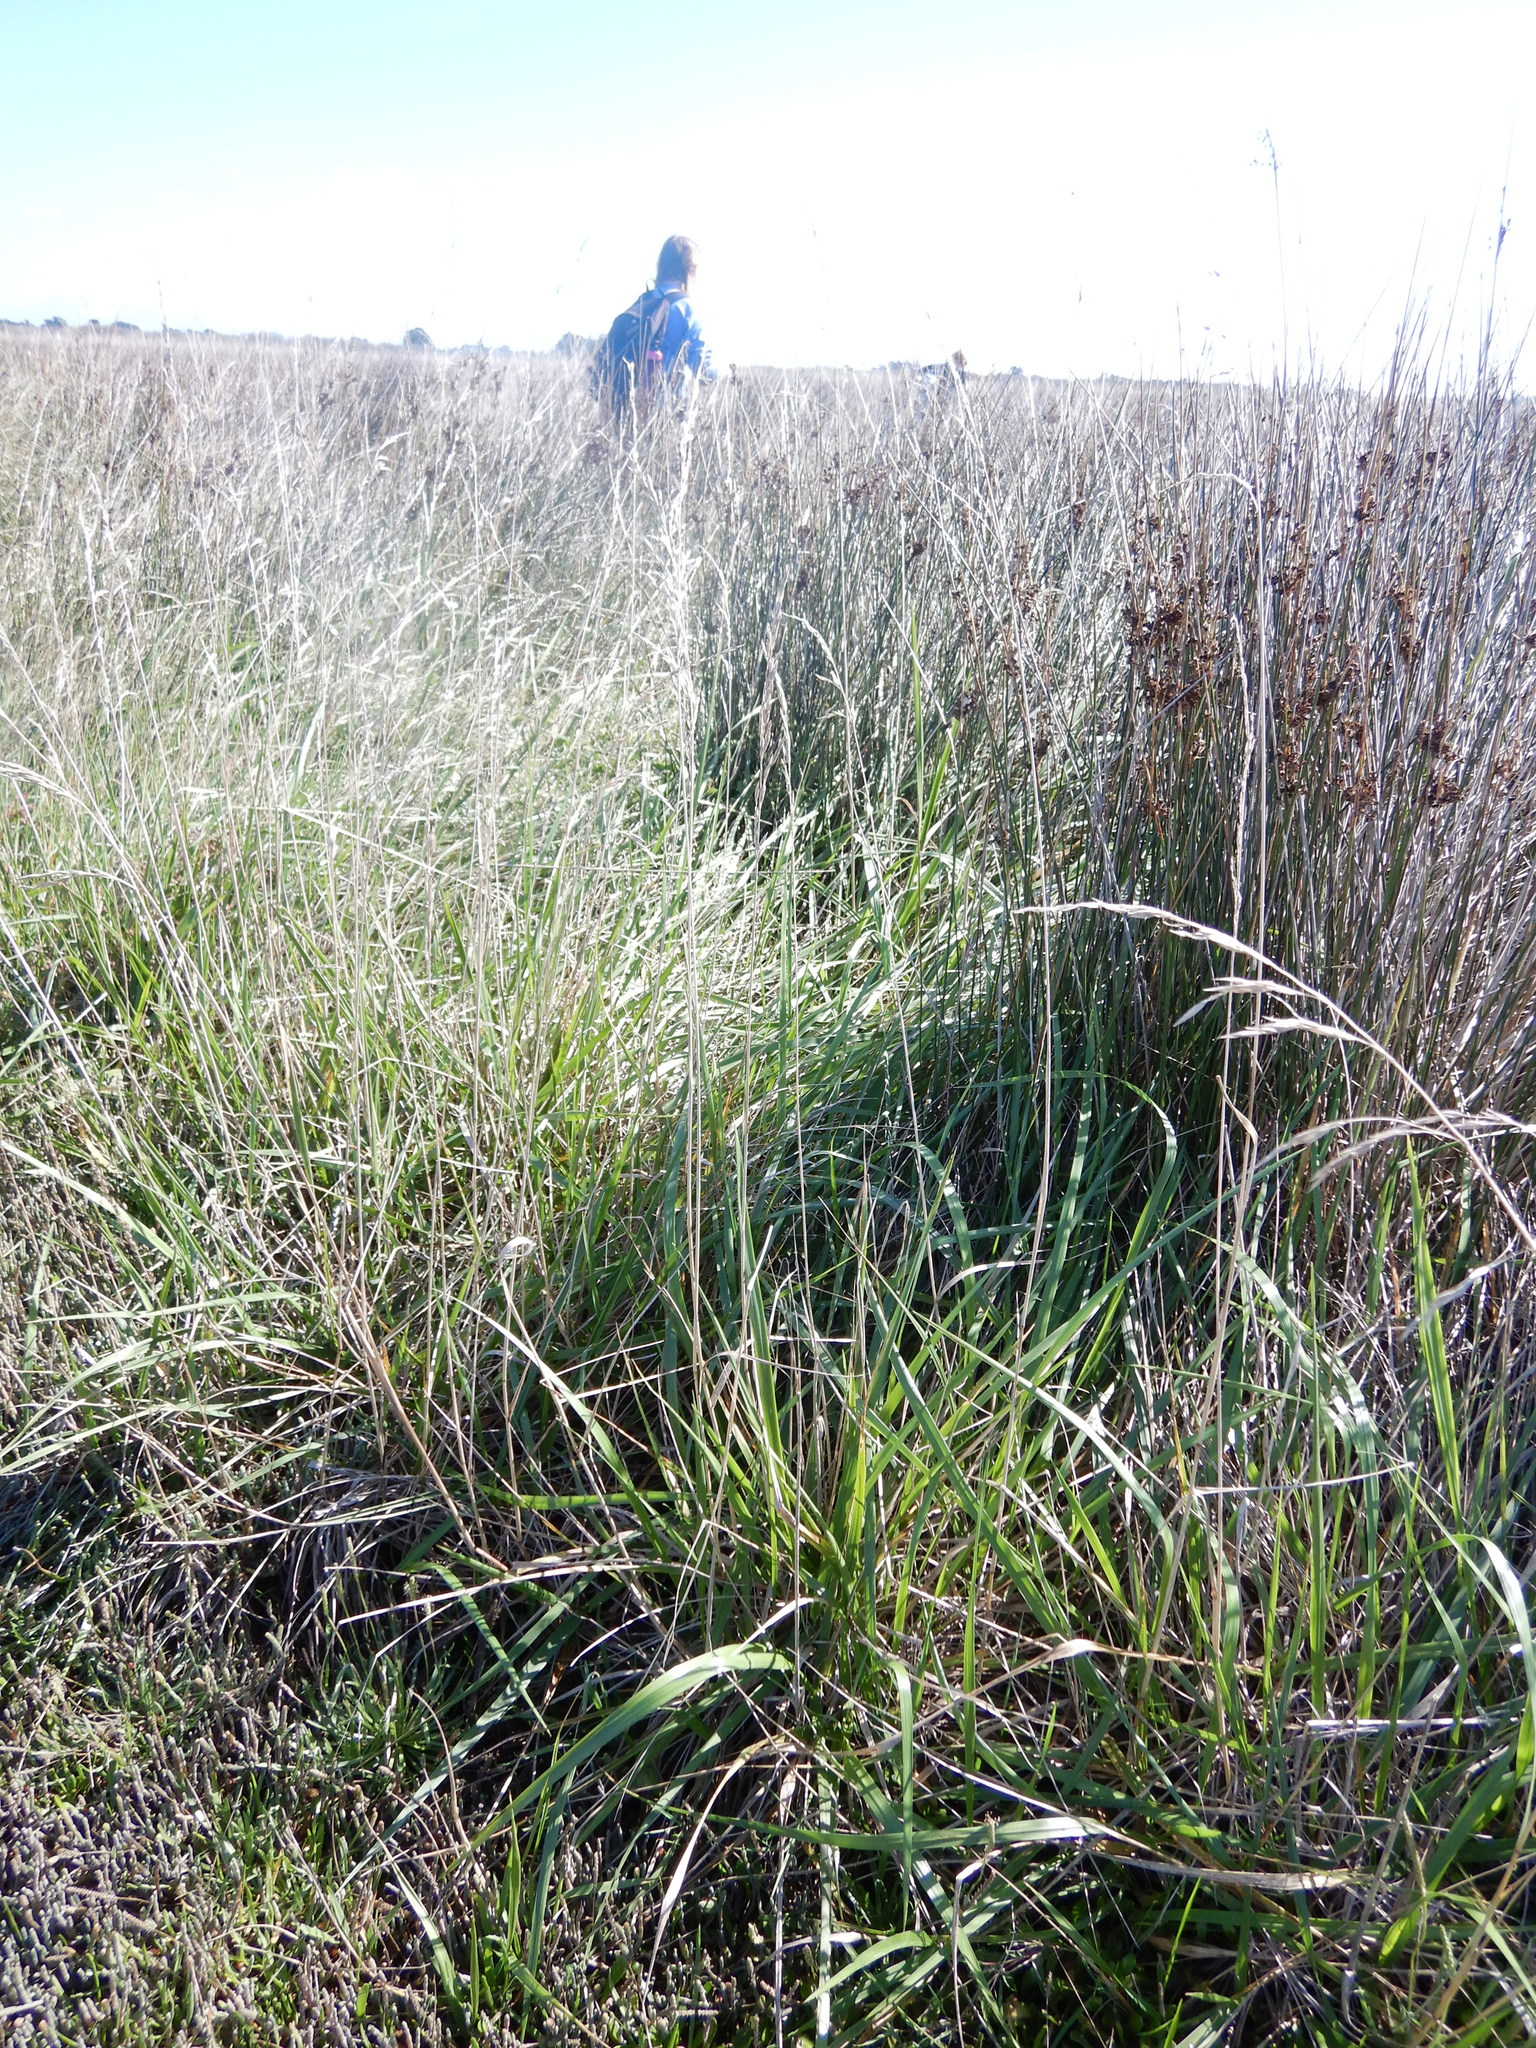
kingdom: Plantae
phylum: Tracheophyta
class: Liliopsida
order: Poales
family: Poaceae
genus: Lolium
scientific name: Lolium arundinaceum
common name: Reed fescue
